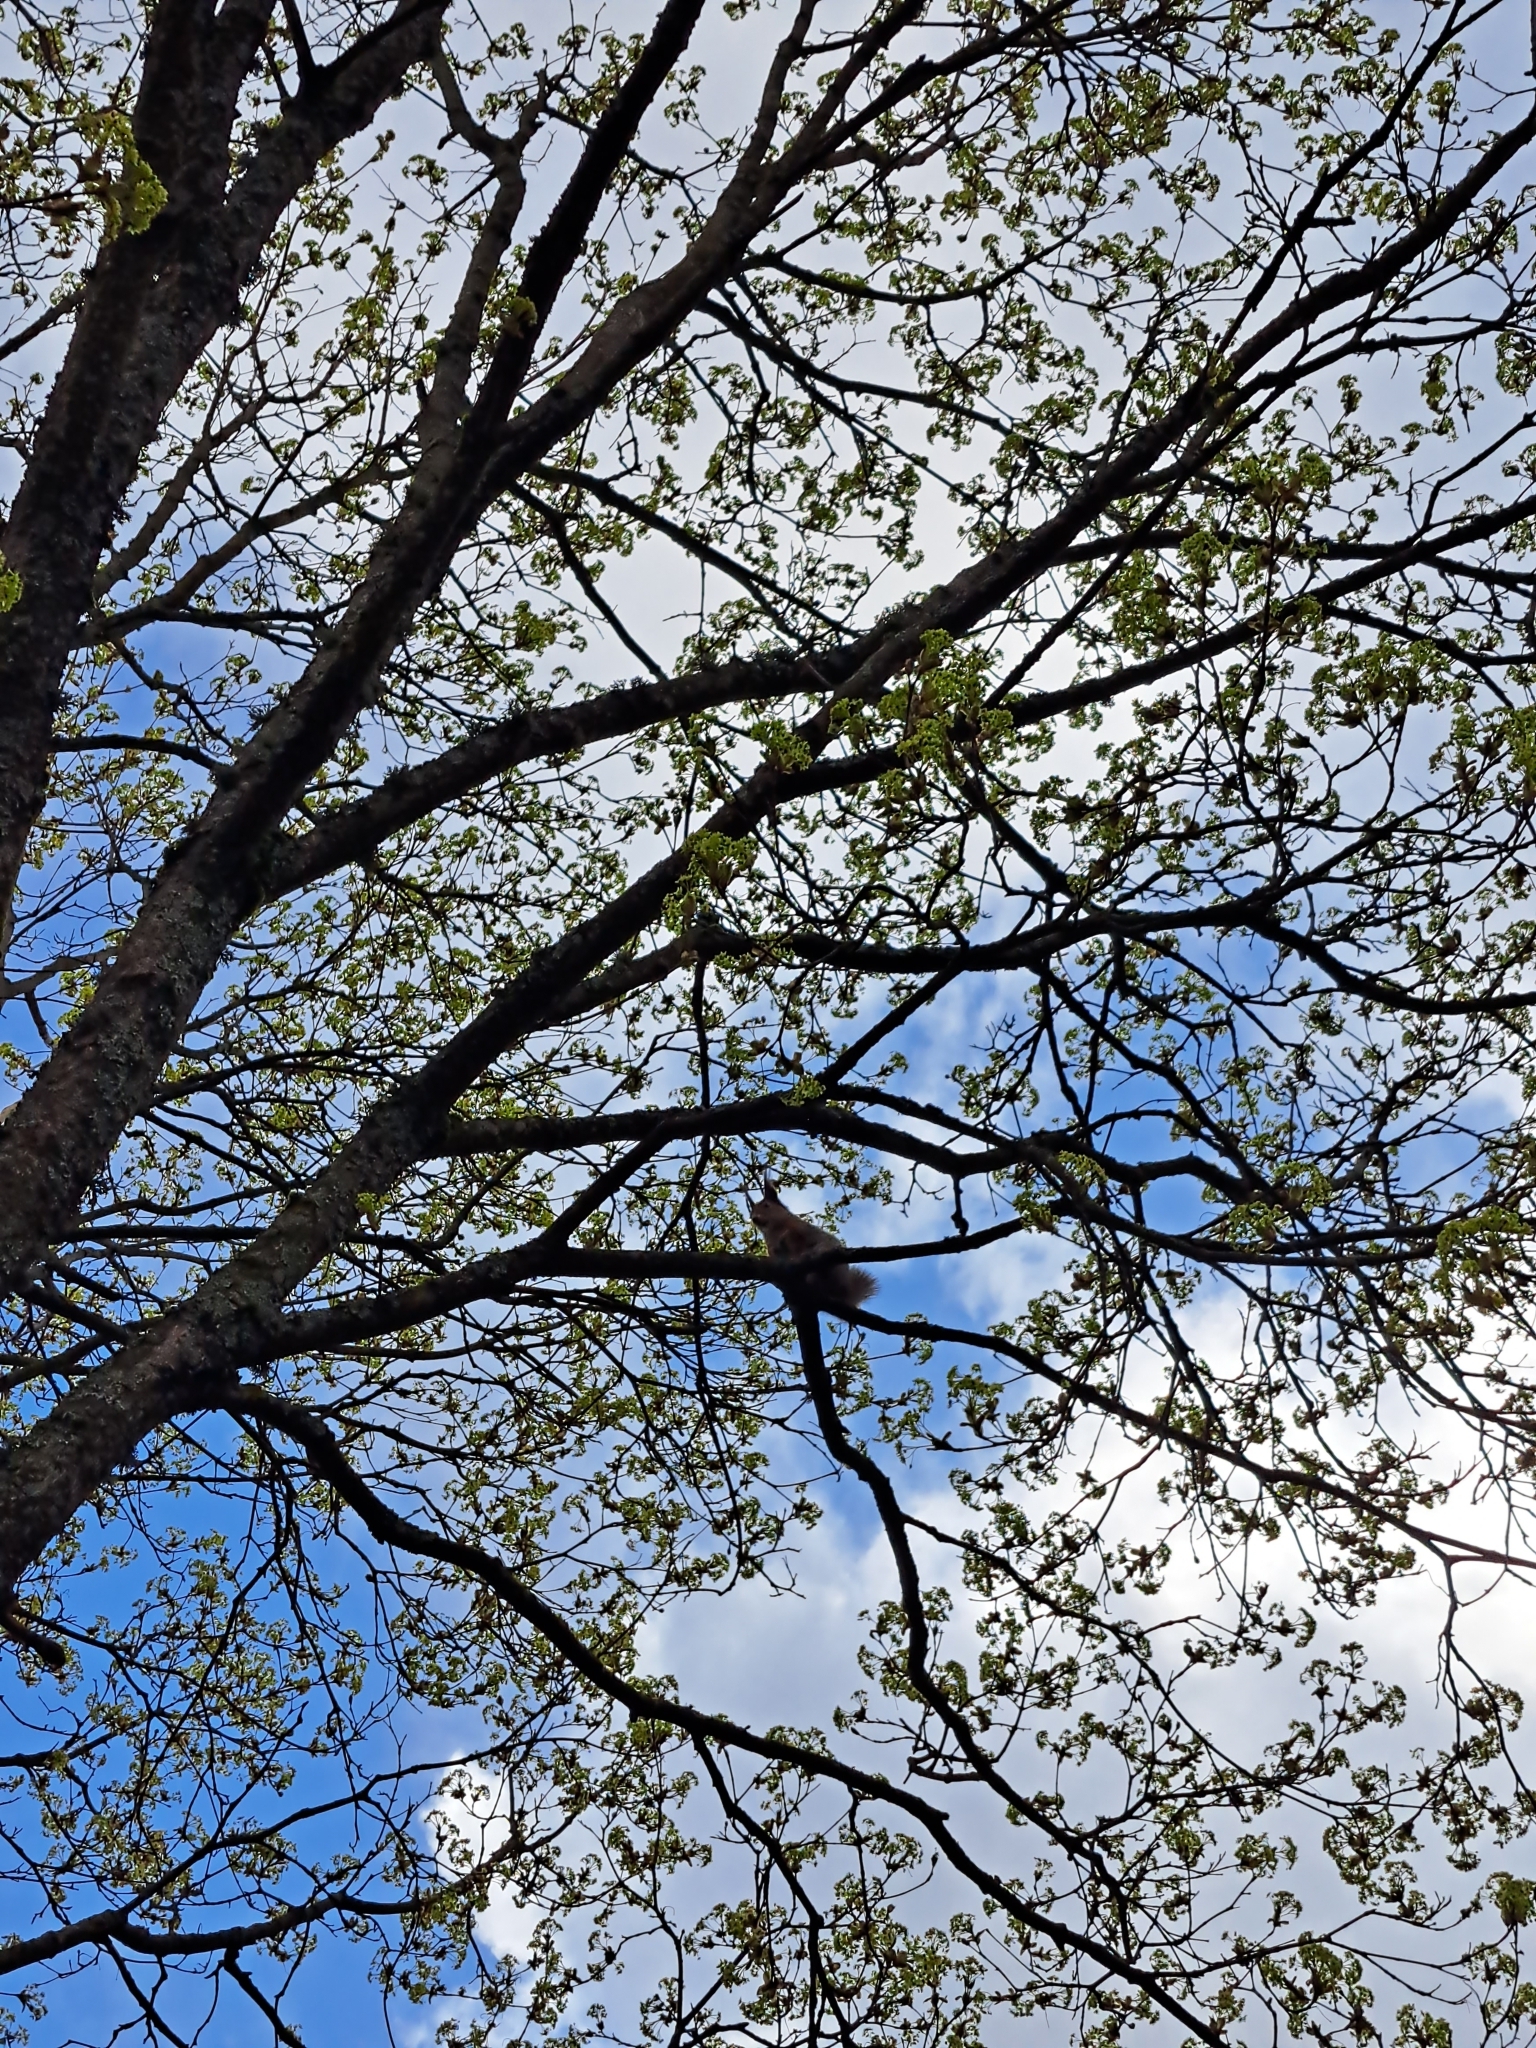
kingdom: Animalia
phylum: Chordata
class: Mammalia
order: Rodentia
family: Sciuridae
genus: Sciurus
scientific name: Sciurus vulgaris
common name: Eurasian red squirrel
